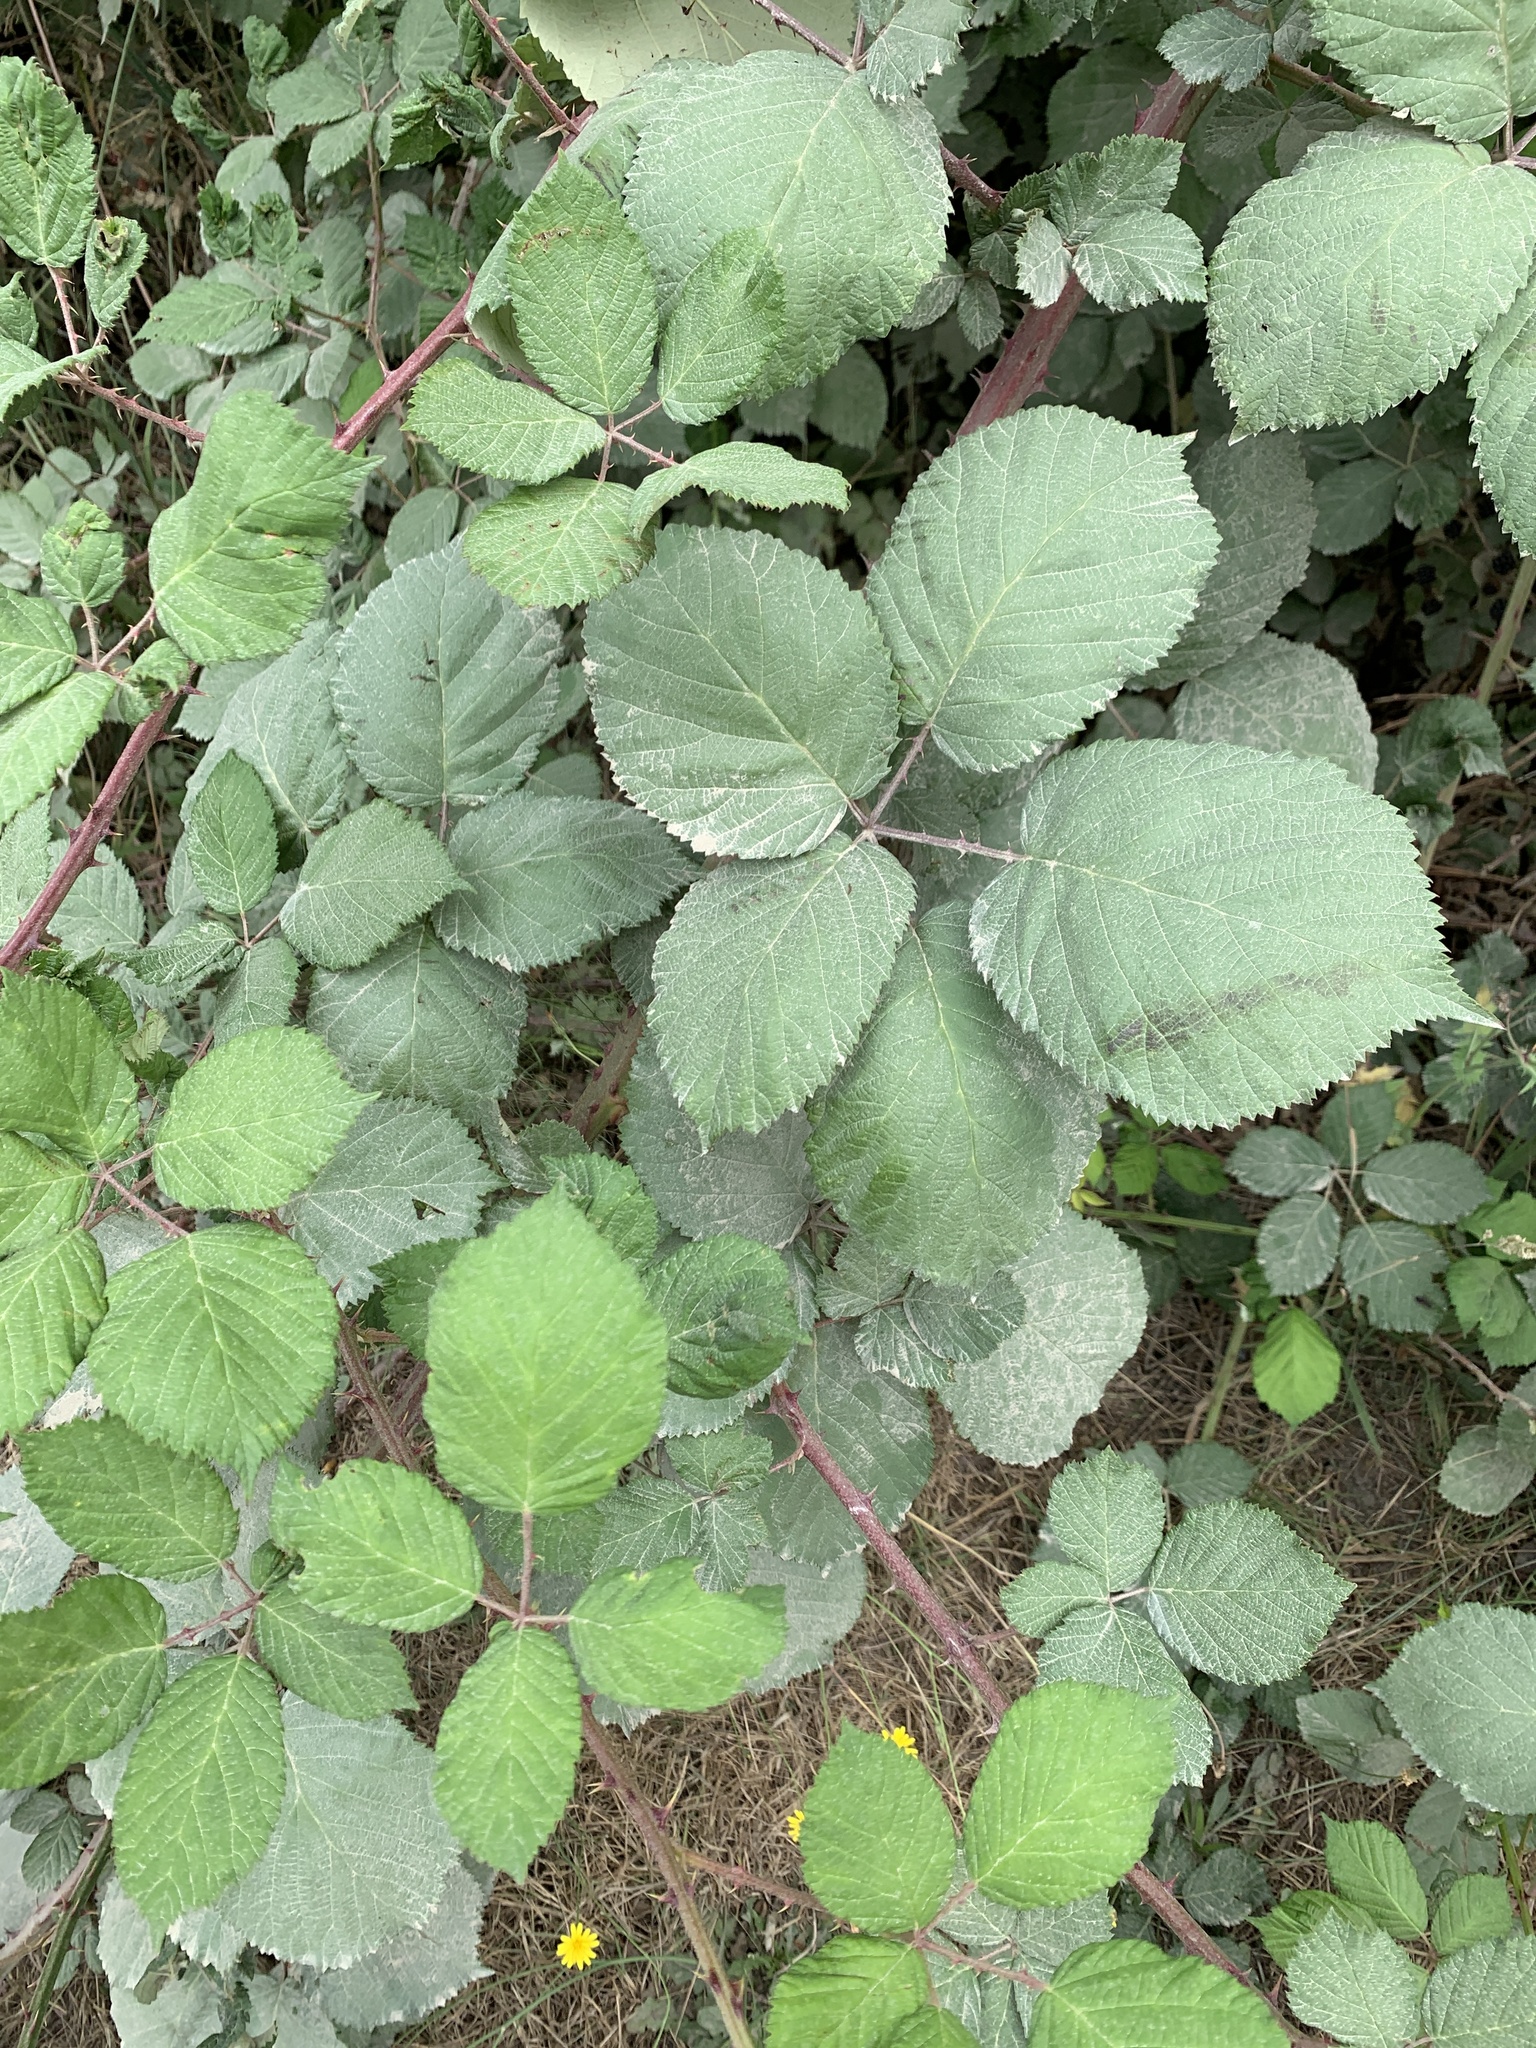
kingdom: Plantae
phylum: Tracheophyta
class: Magnoliopsida
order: Rosales
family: Rosaceae
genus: Rubus
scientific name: Rubus armeniacus
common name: Himalayan blackberry
